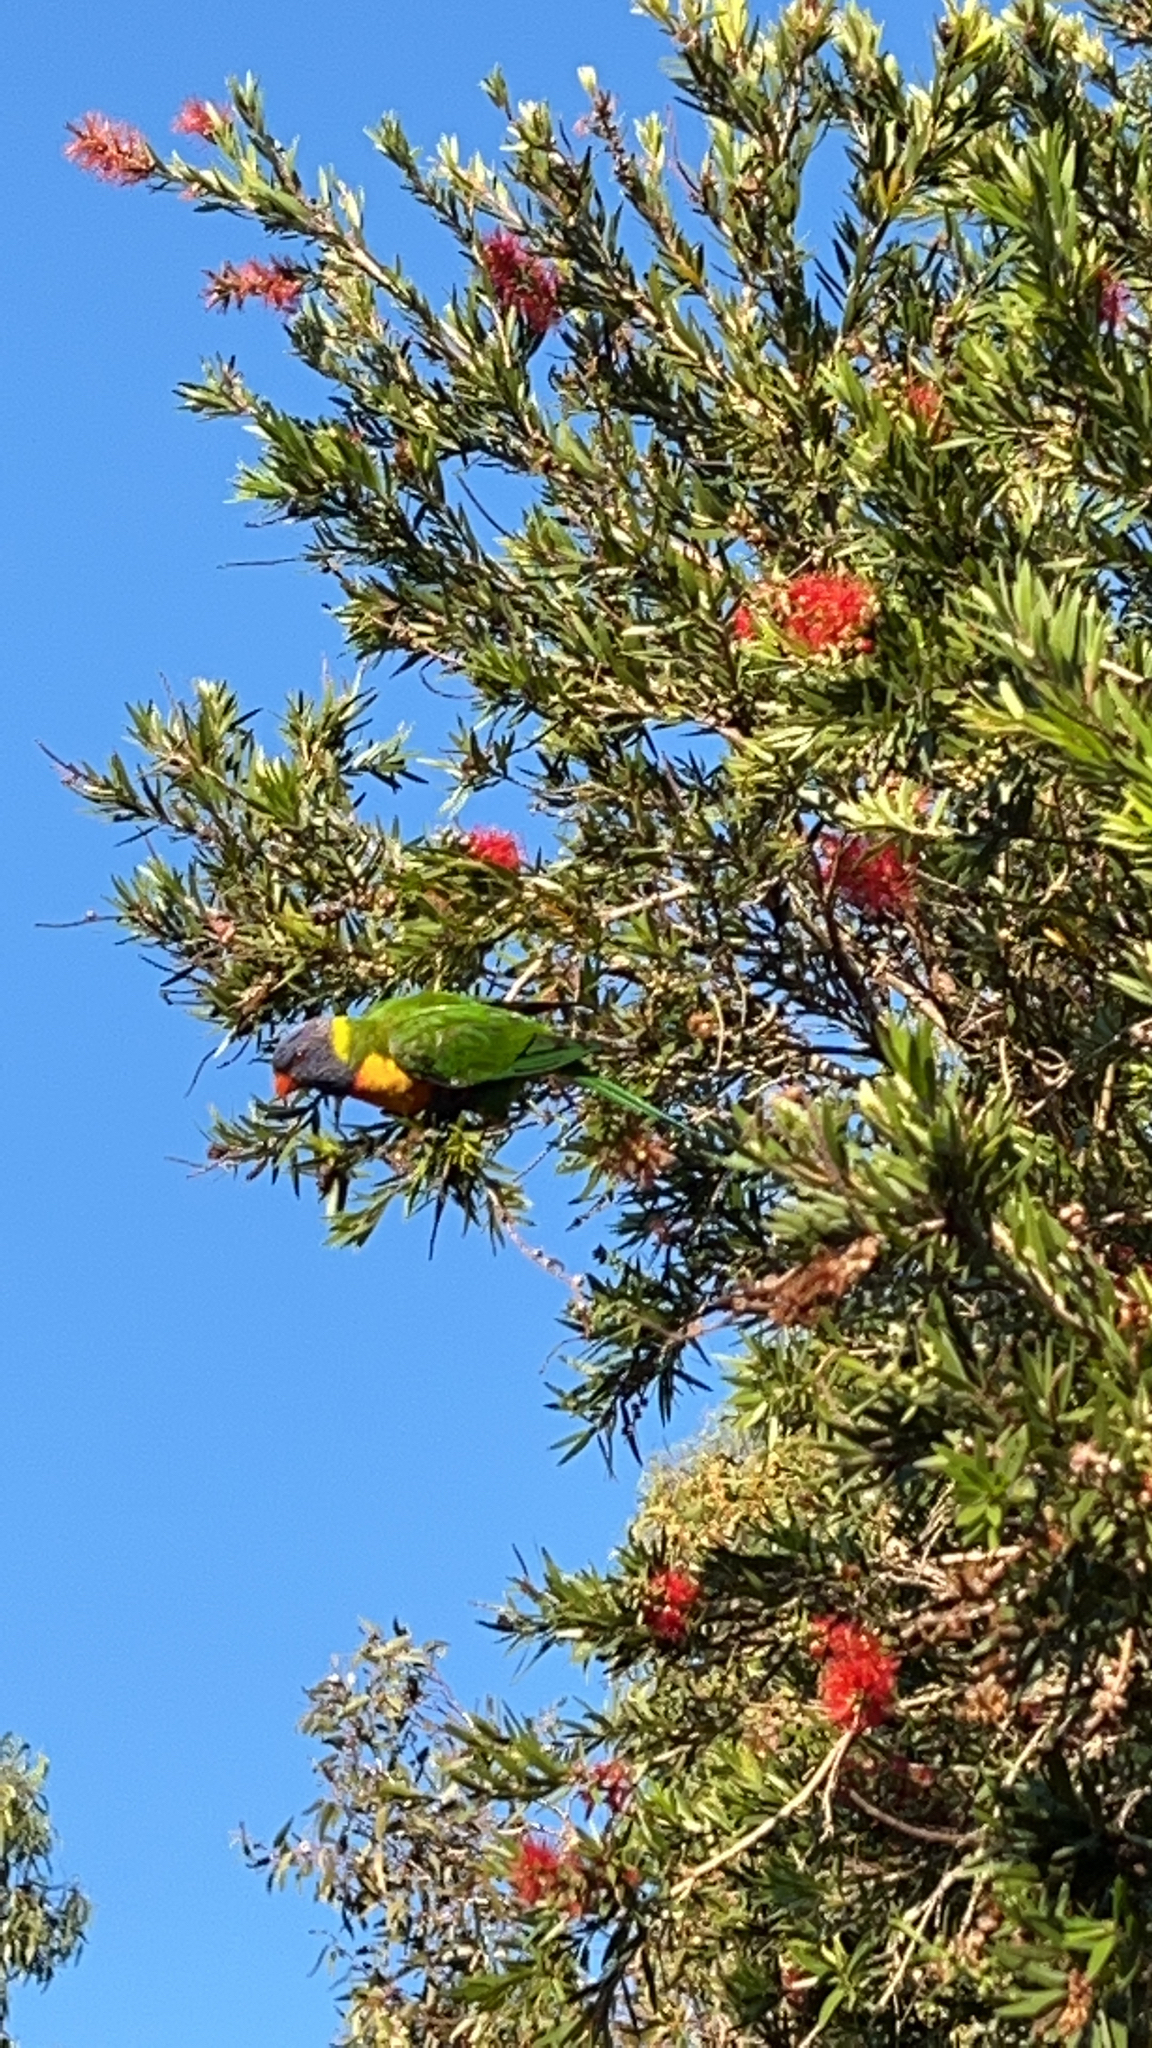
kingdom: Animalia
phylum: Chordata
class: Aves
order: Psittaciformes
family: Psittacidae
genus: Trichoglossus
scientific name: Trichoglossus haematodus
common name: Coconut lorikeet
